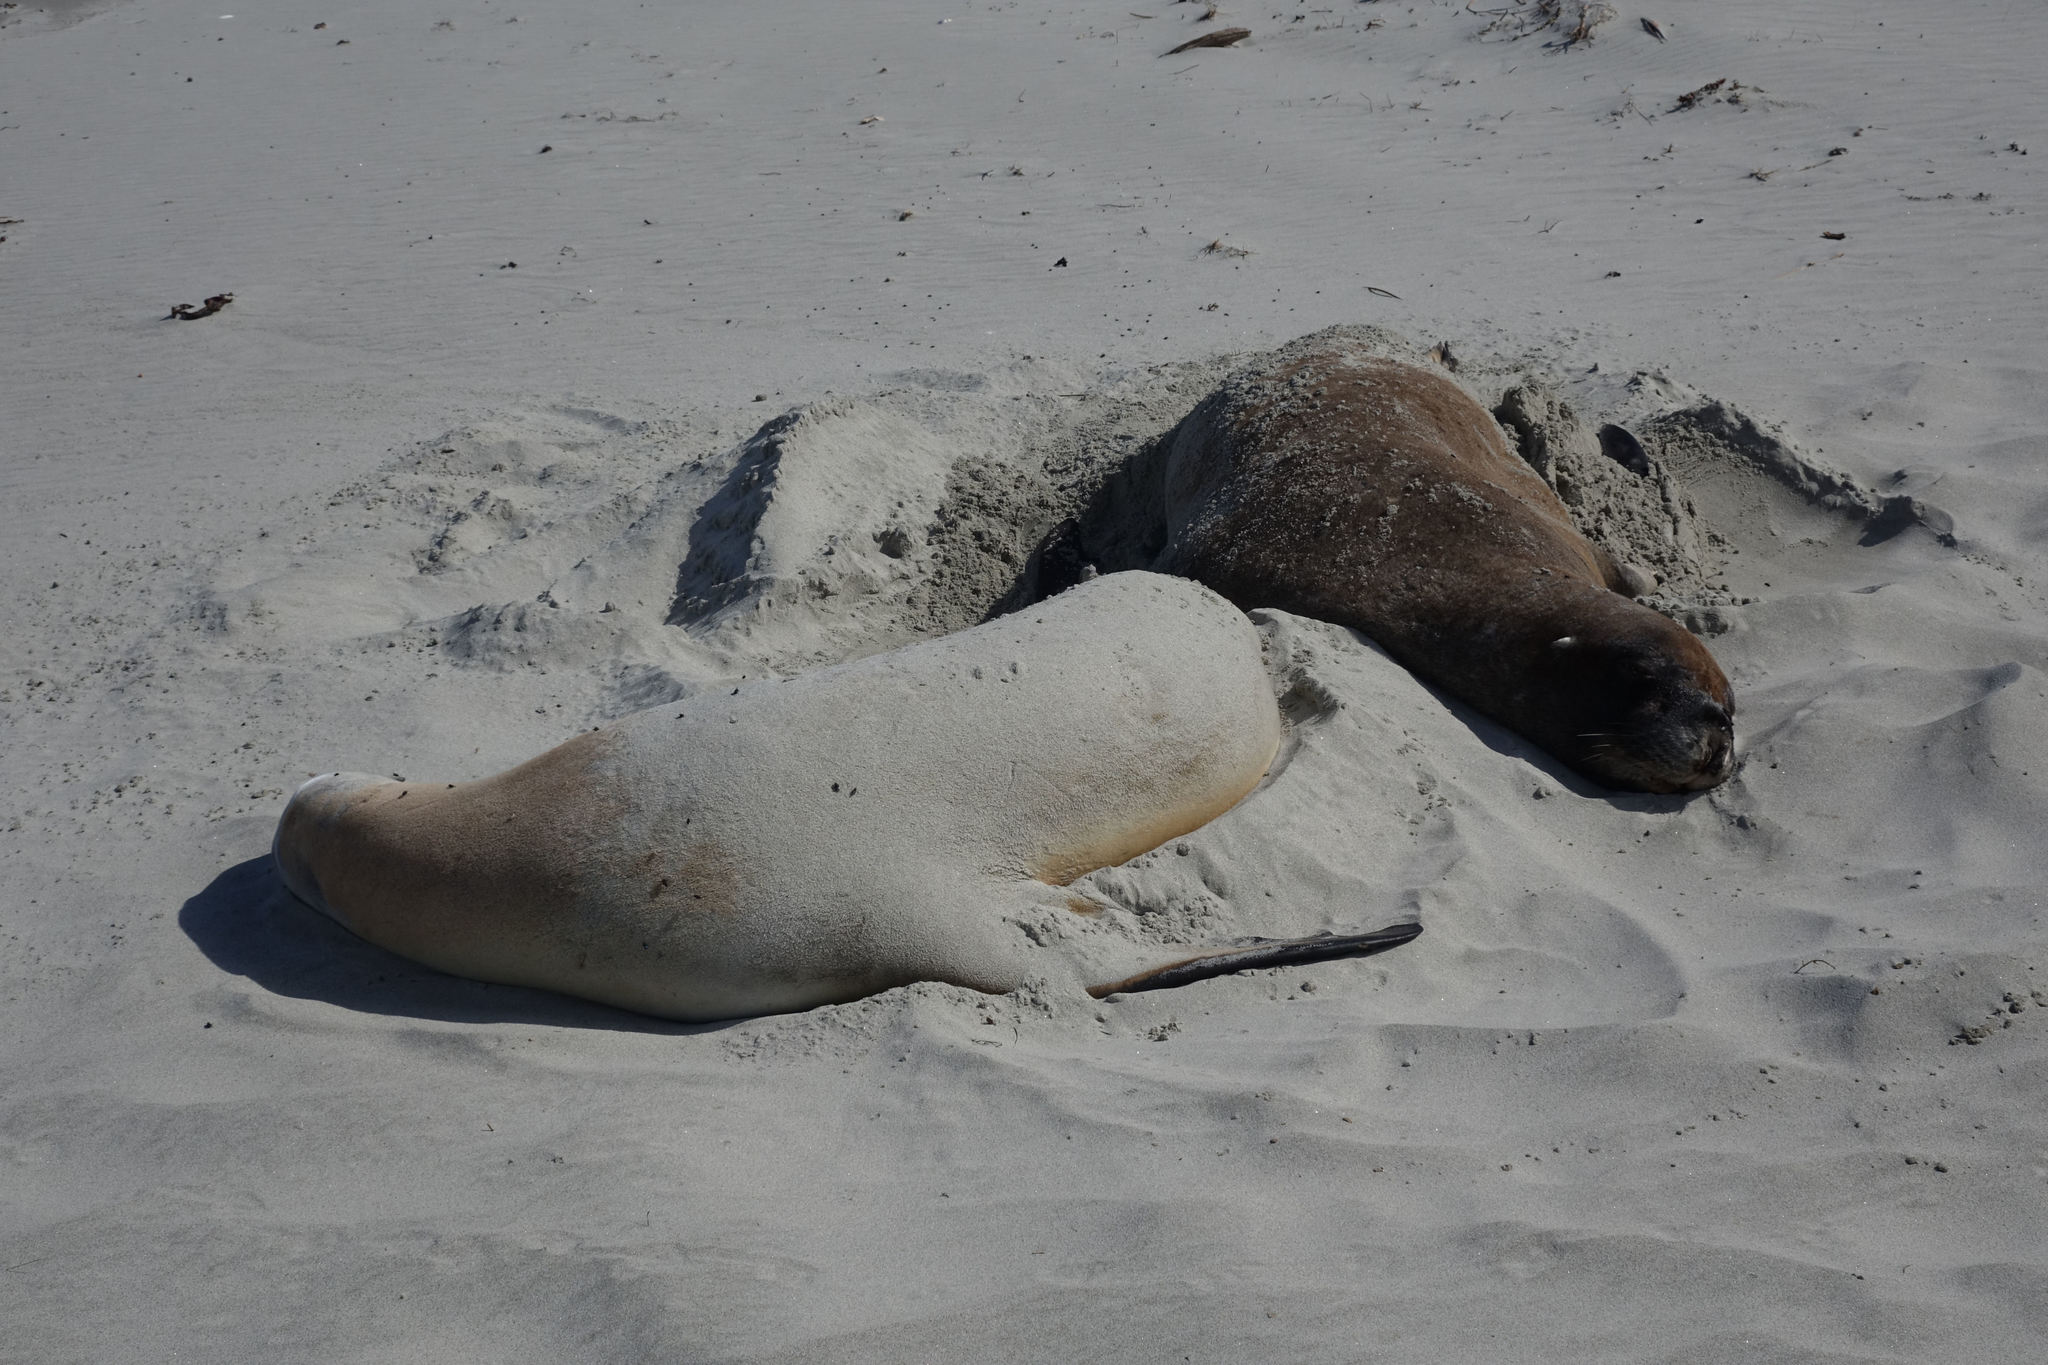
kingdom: Animalia
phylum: Chordata
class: Mammalia
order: Carnivora
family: Otariidae
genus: Phocarctos
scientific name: Phocarctos hookeri
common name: New zealand sea lion
